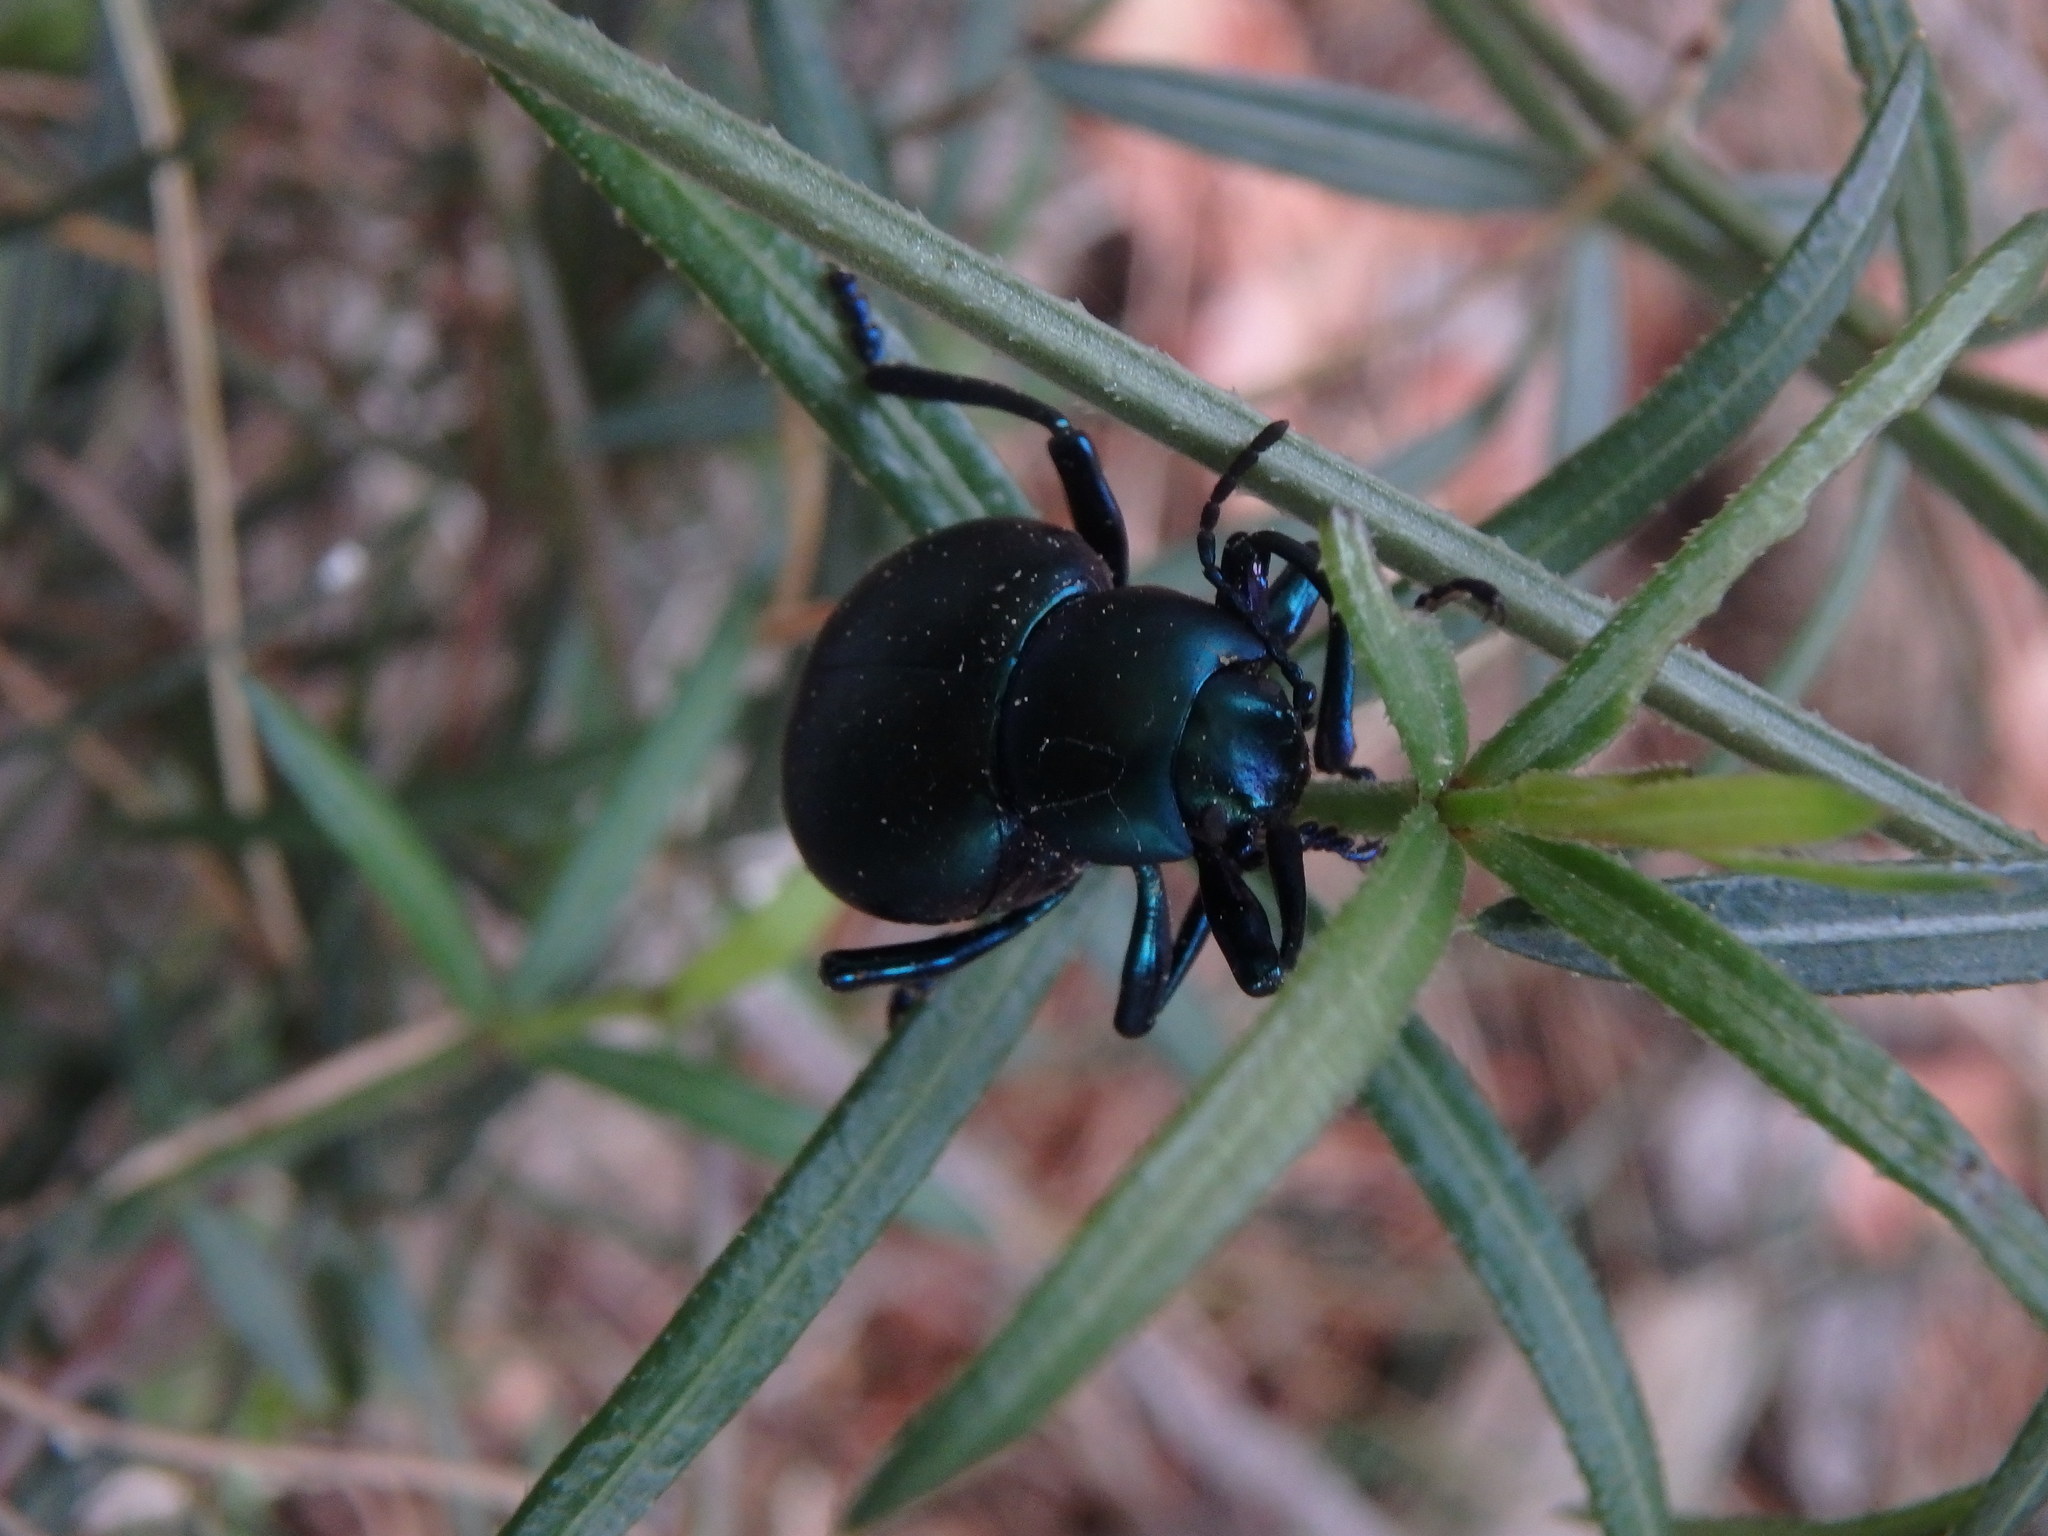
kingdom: Animalia
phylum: Arthropoda
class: Insecta
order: Coleoptera
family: Chrysomelidae
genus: Timarcha
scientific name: Timarcha balearica
